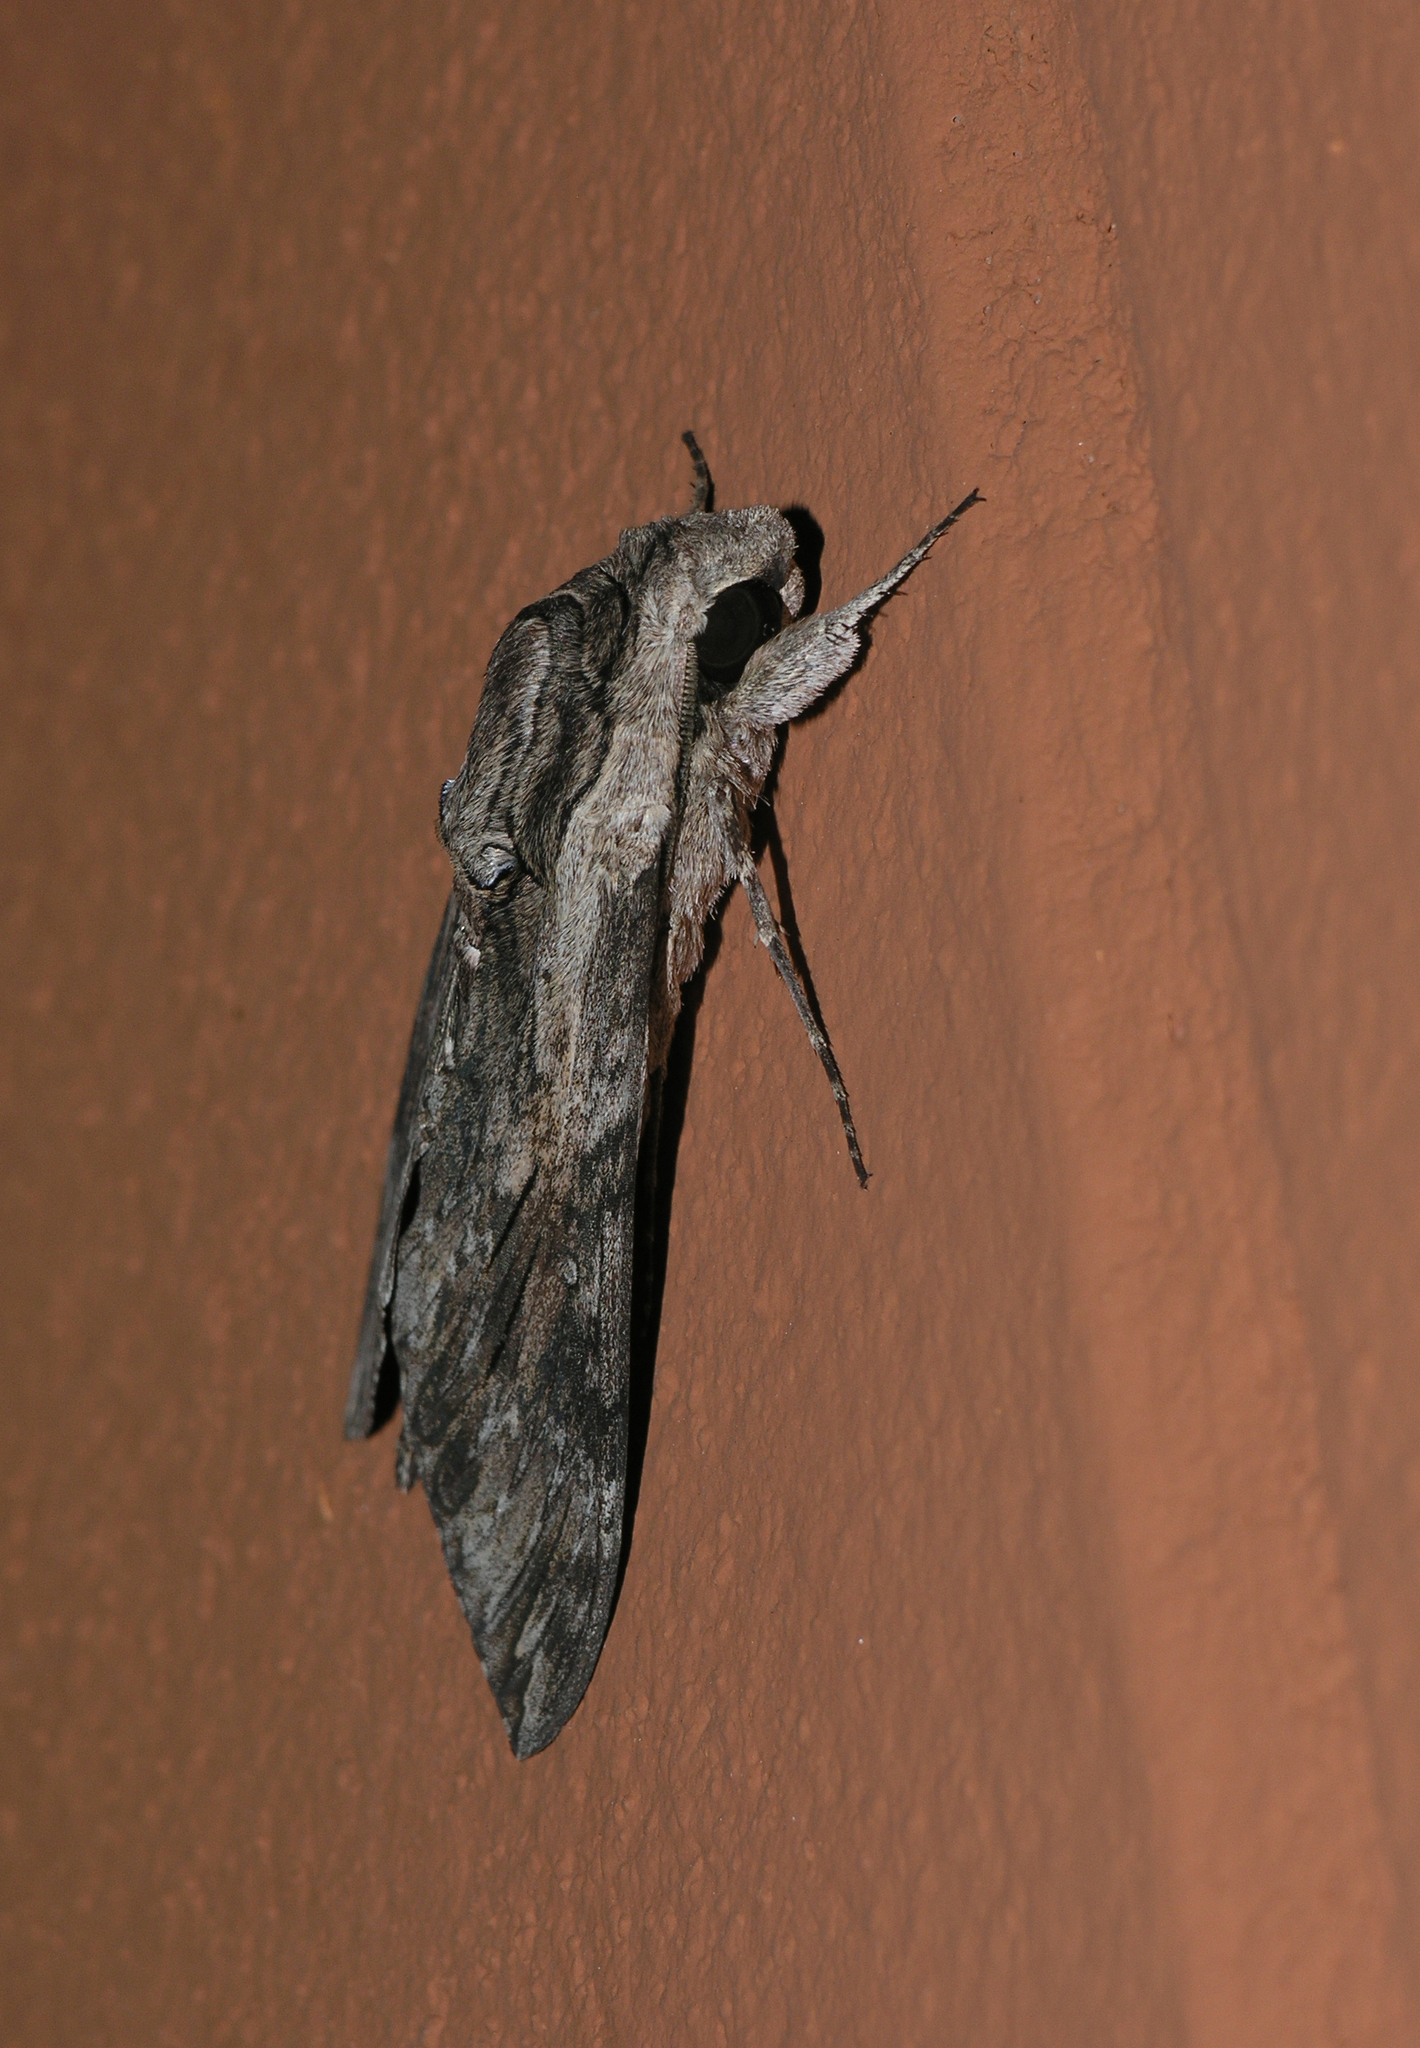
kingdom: Animalia
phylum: Arthropoda
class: Insecta
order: Lepidoptera
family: Sphingidae
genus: Agrius
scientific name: Agrius convolvuli
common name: Convolvulus hawkmoth
